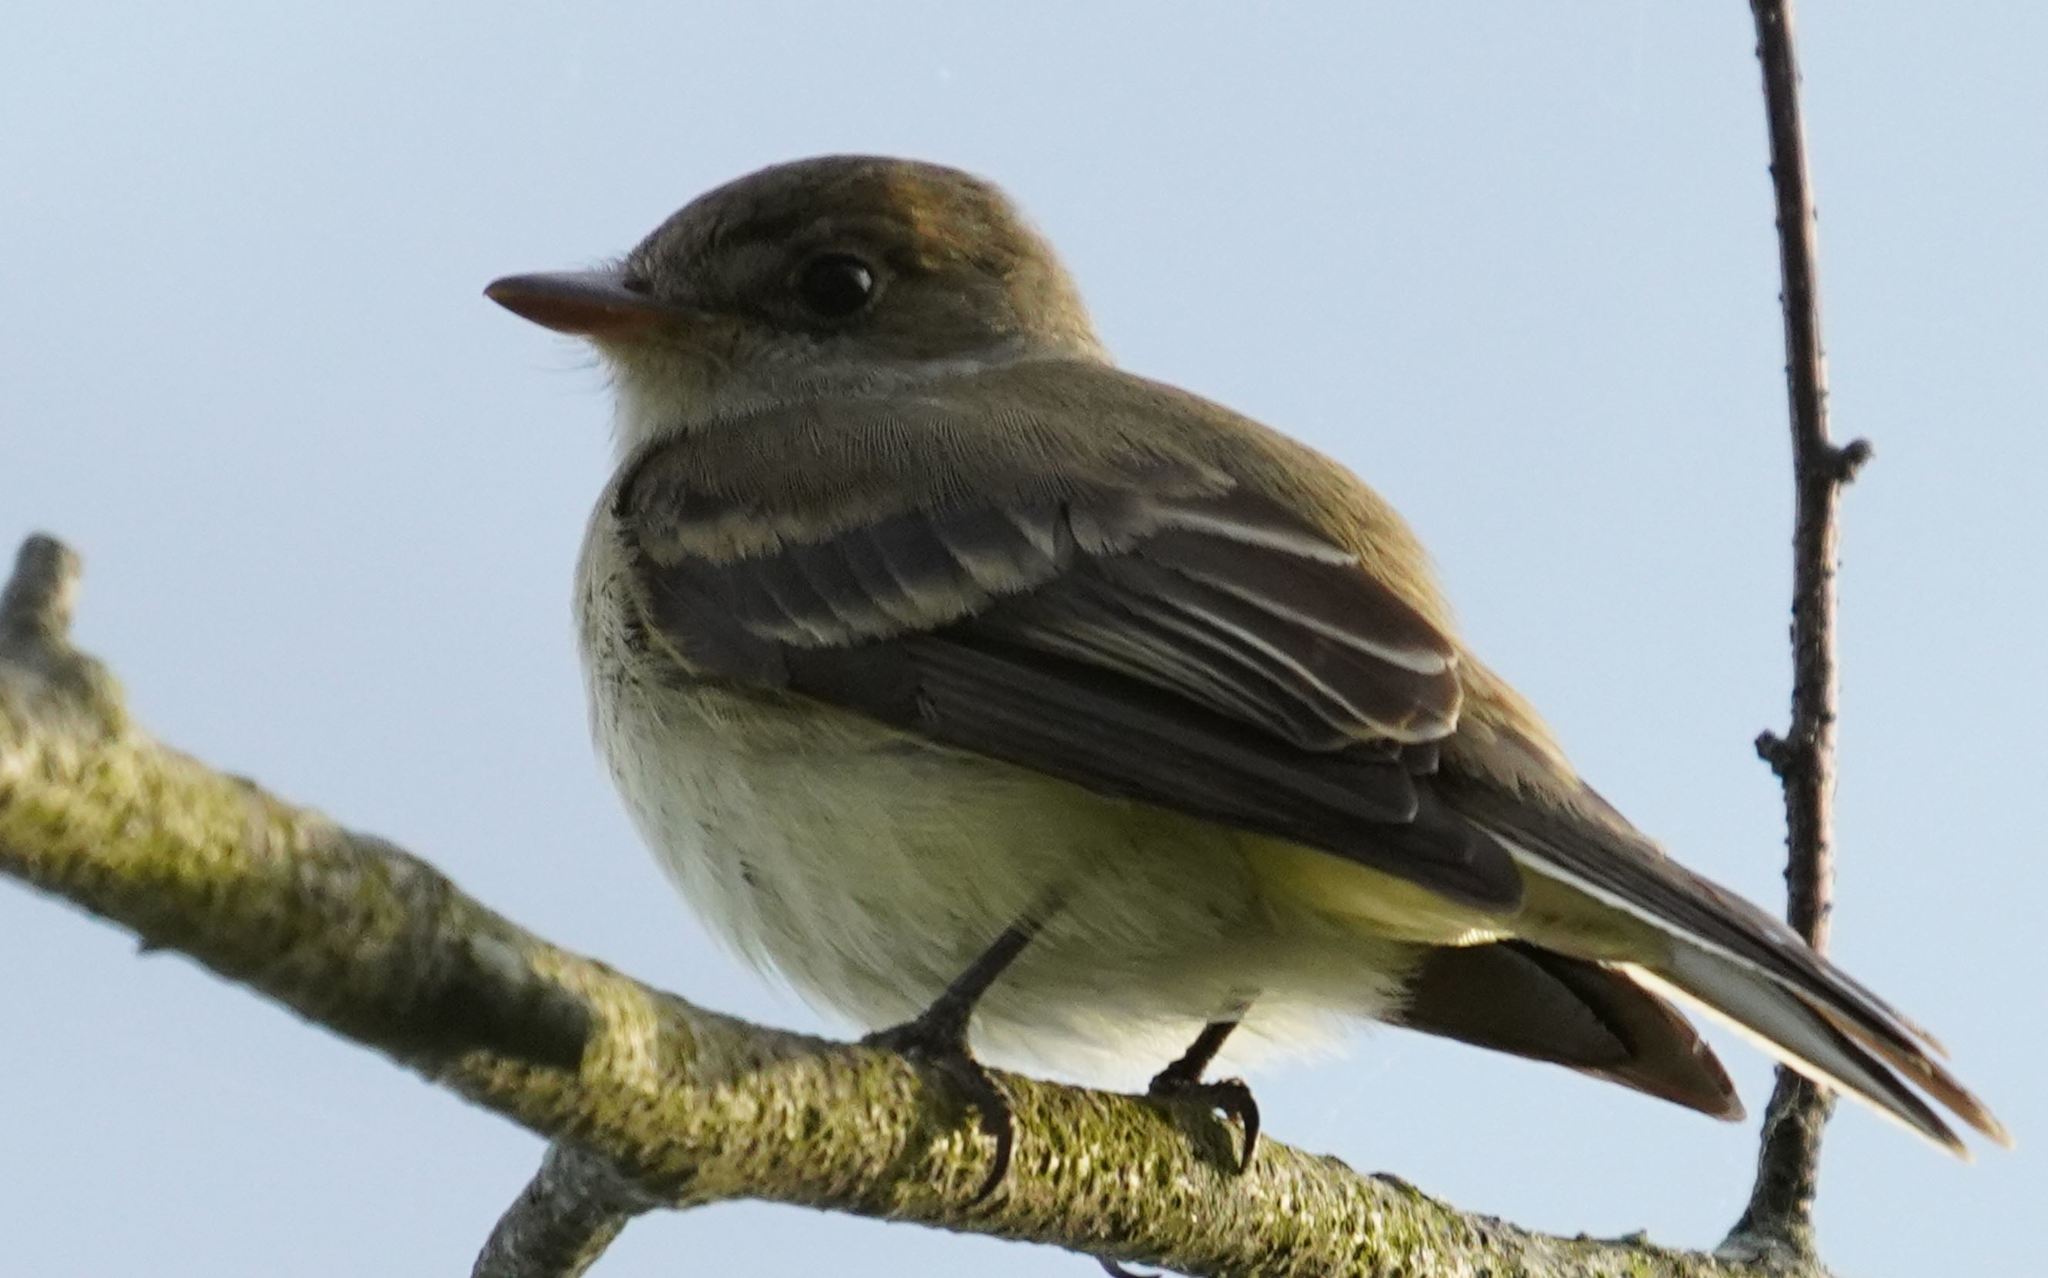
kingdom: Animalia
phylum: Chordata
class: Aves
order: Passeriformes
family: Tyrannidae
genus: Sayornis
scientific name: Sayornis phoebe
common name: Eastern phoebe
